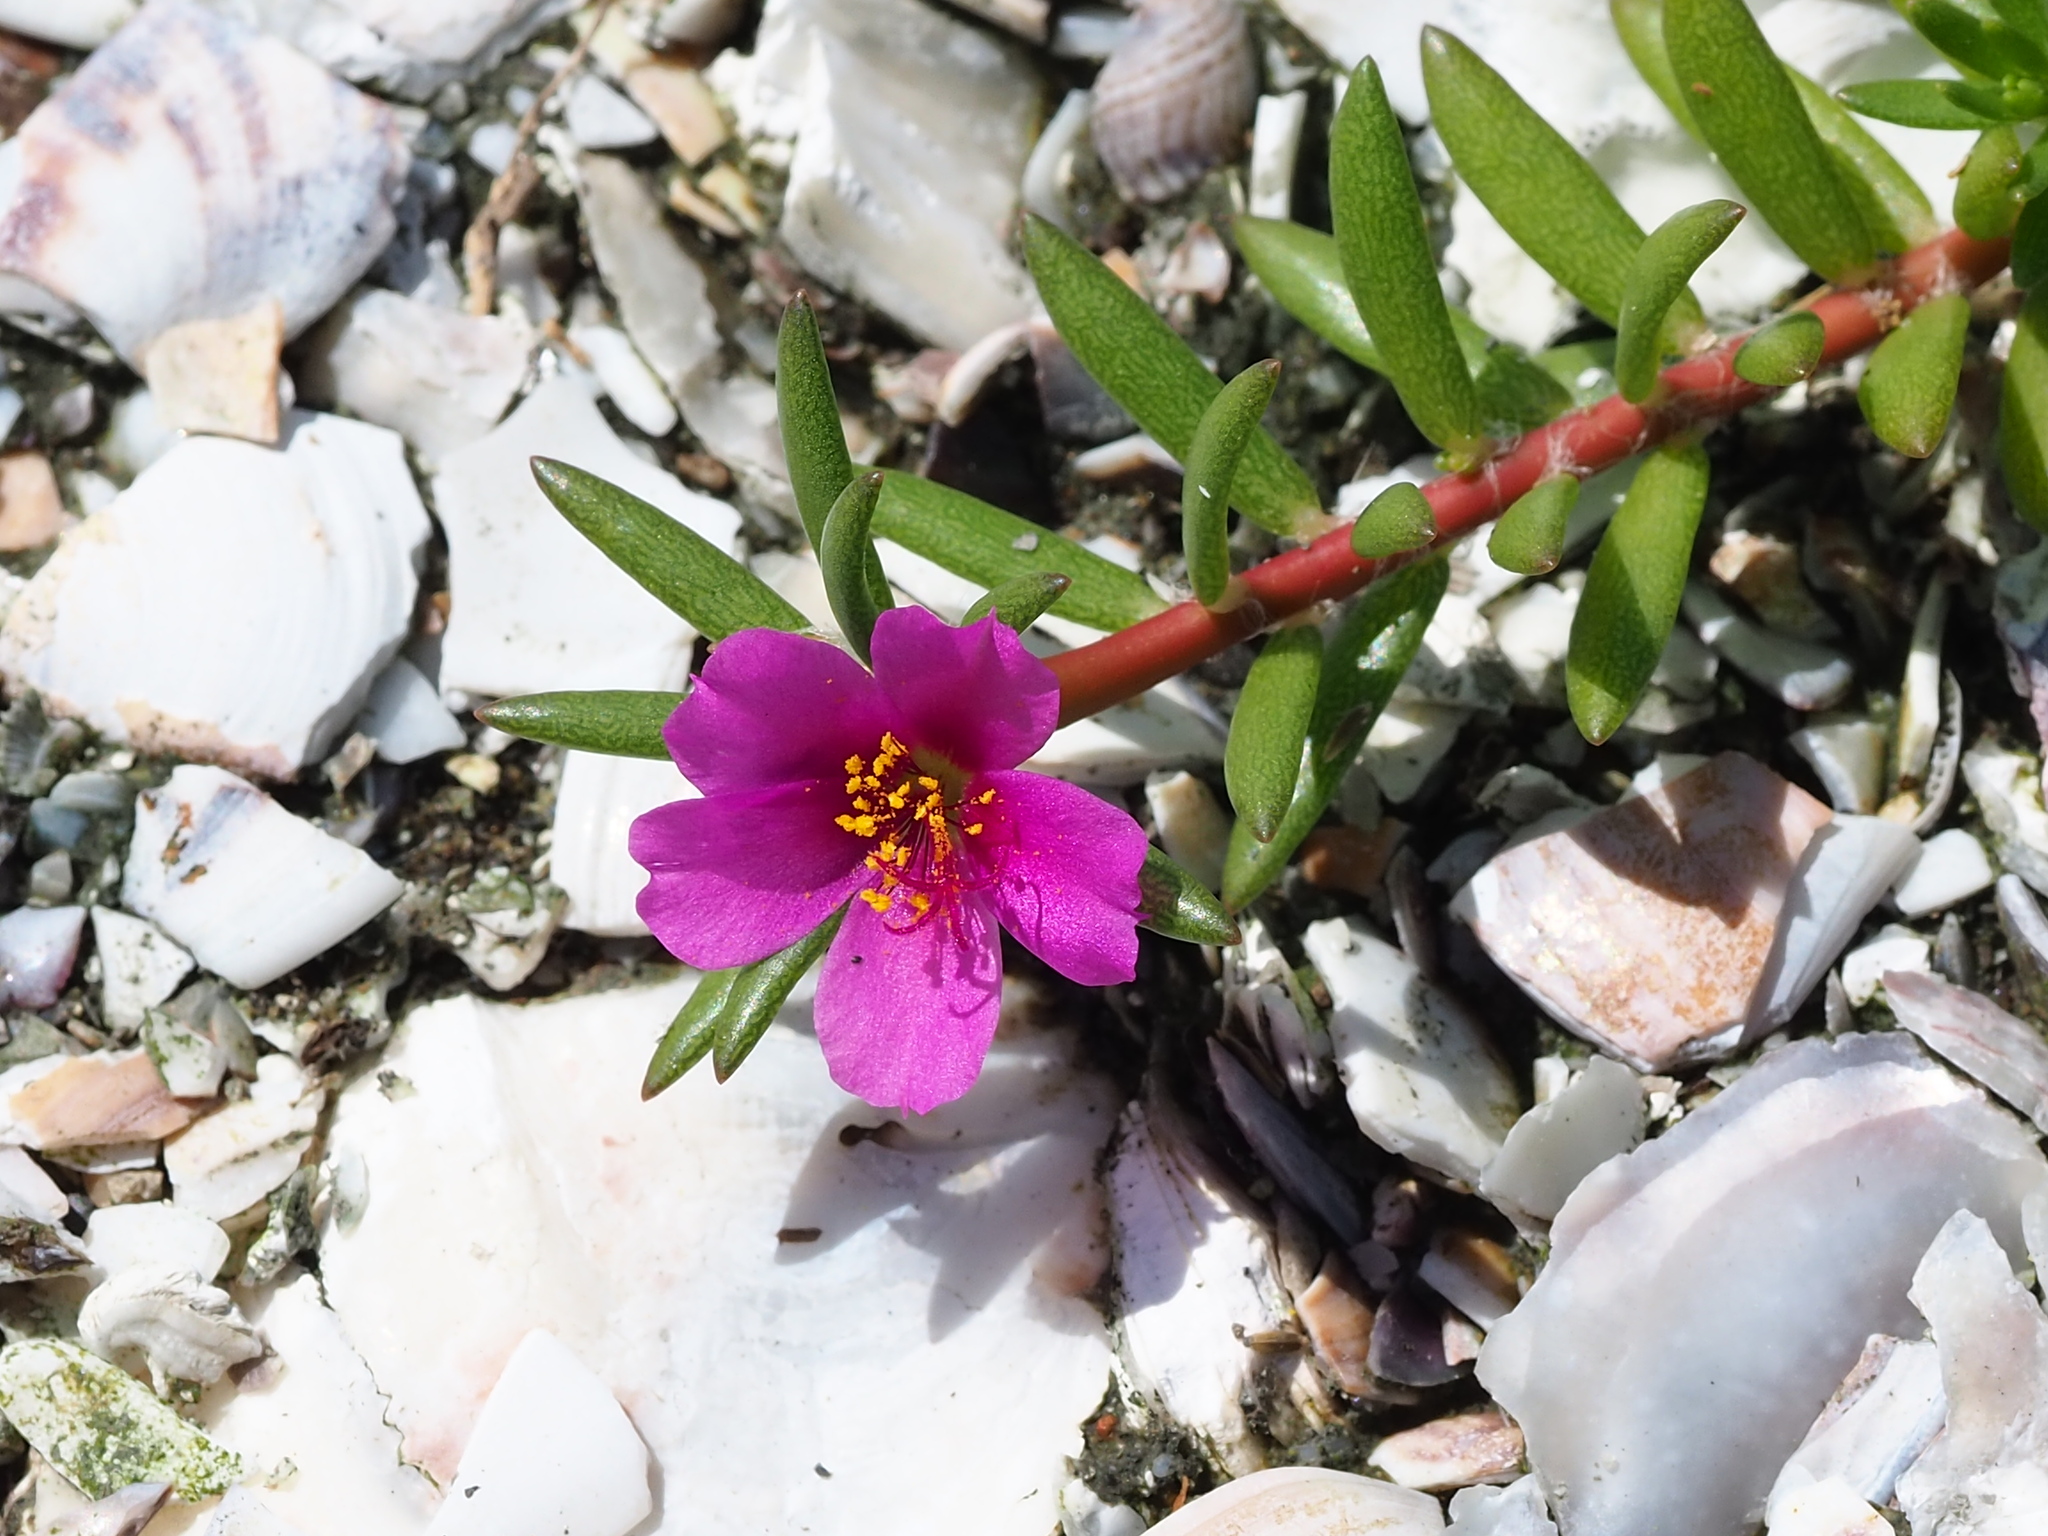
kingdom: Plantae
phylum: Tracheophyta
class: Magnoliopsida
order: Caryophyllales
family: Portulacaceae
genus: Portulaca
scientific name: Portulaca pilosa
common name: Kiss me quick
